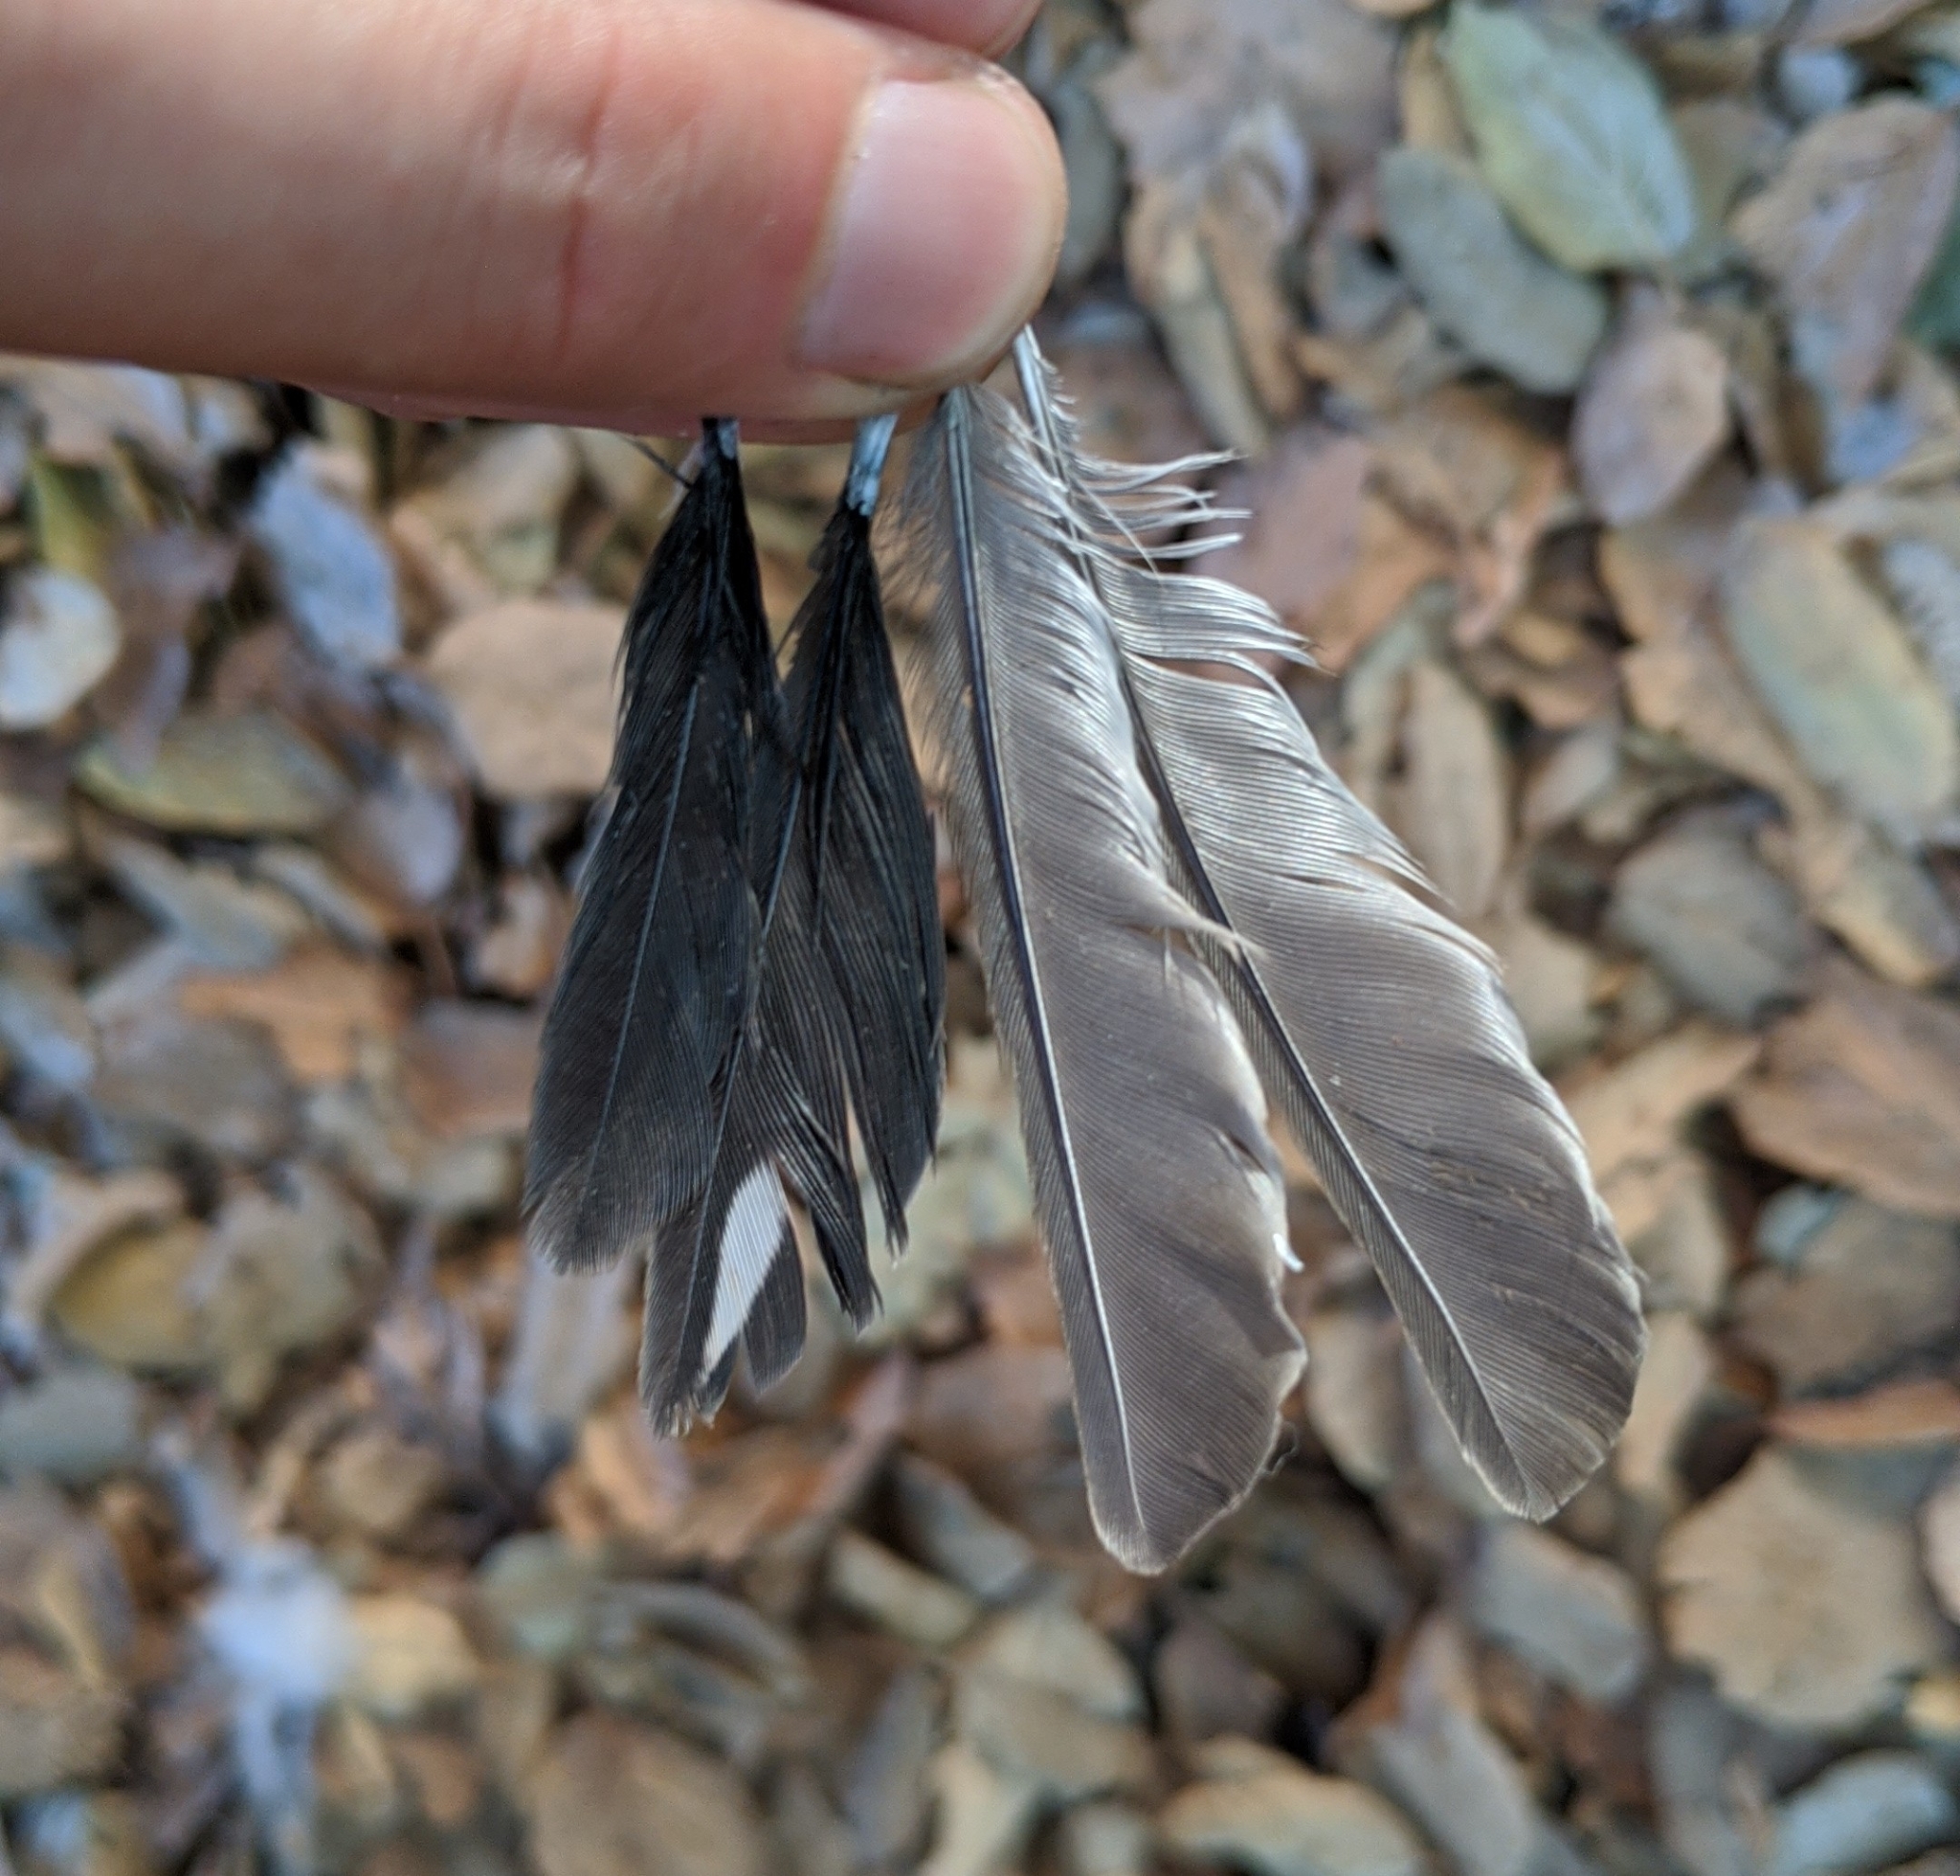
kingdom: Animalia
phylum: Chordata
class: Aves
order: Passeriformes
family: Passerellidae
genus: Pipilo
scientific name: Pipilo maculatus
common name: Spotted towhee
